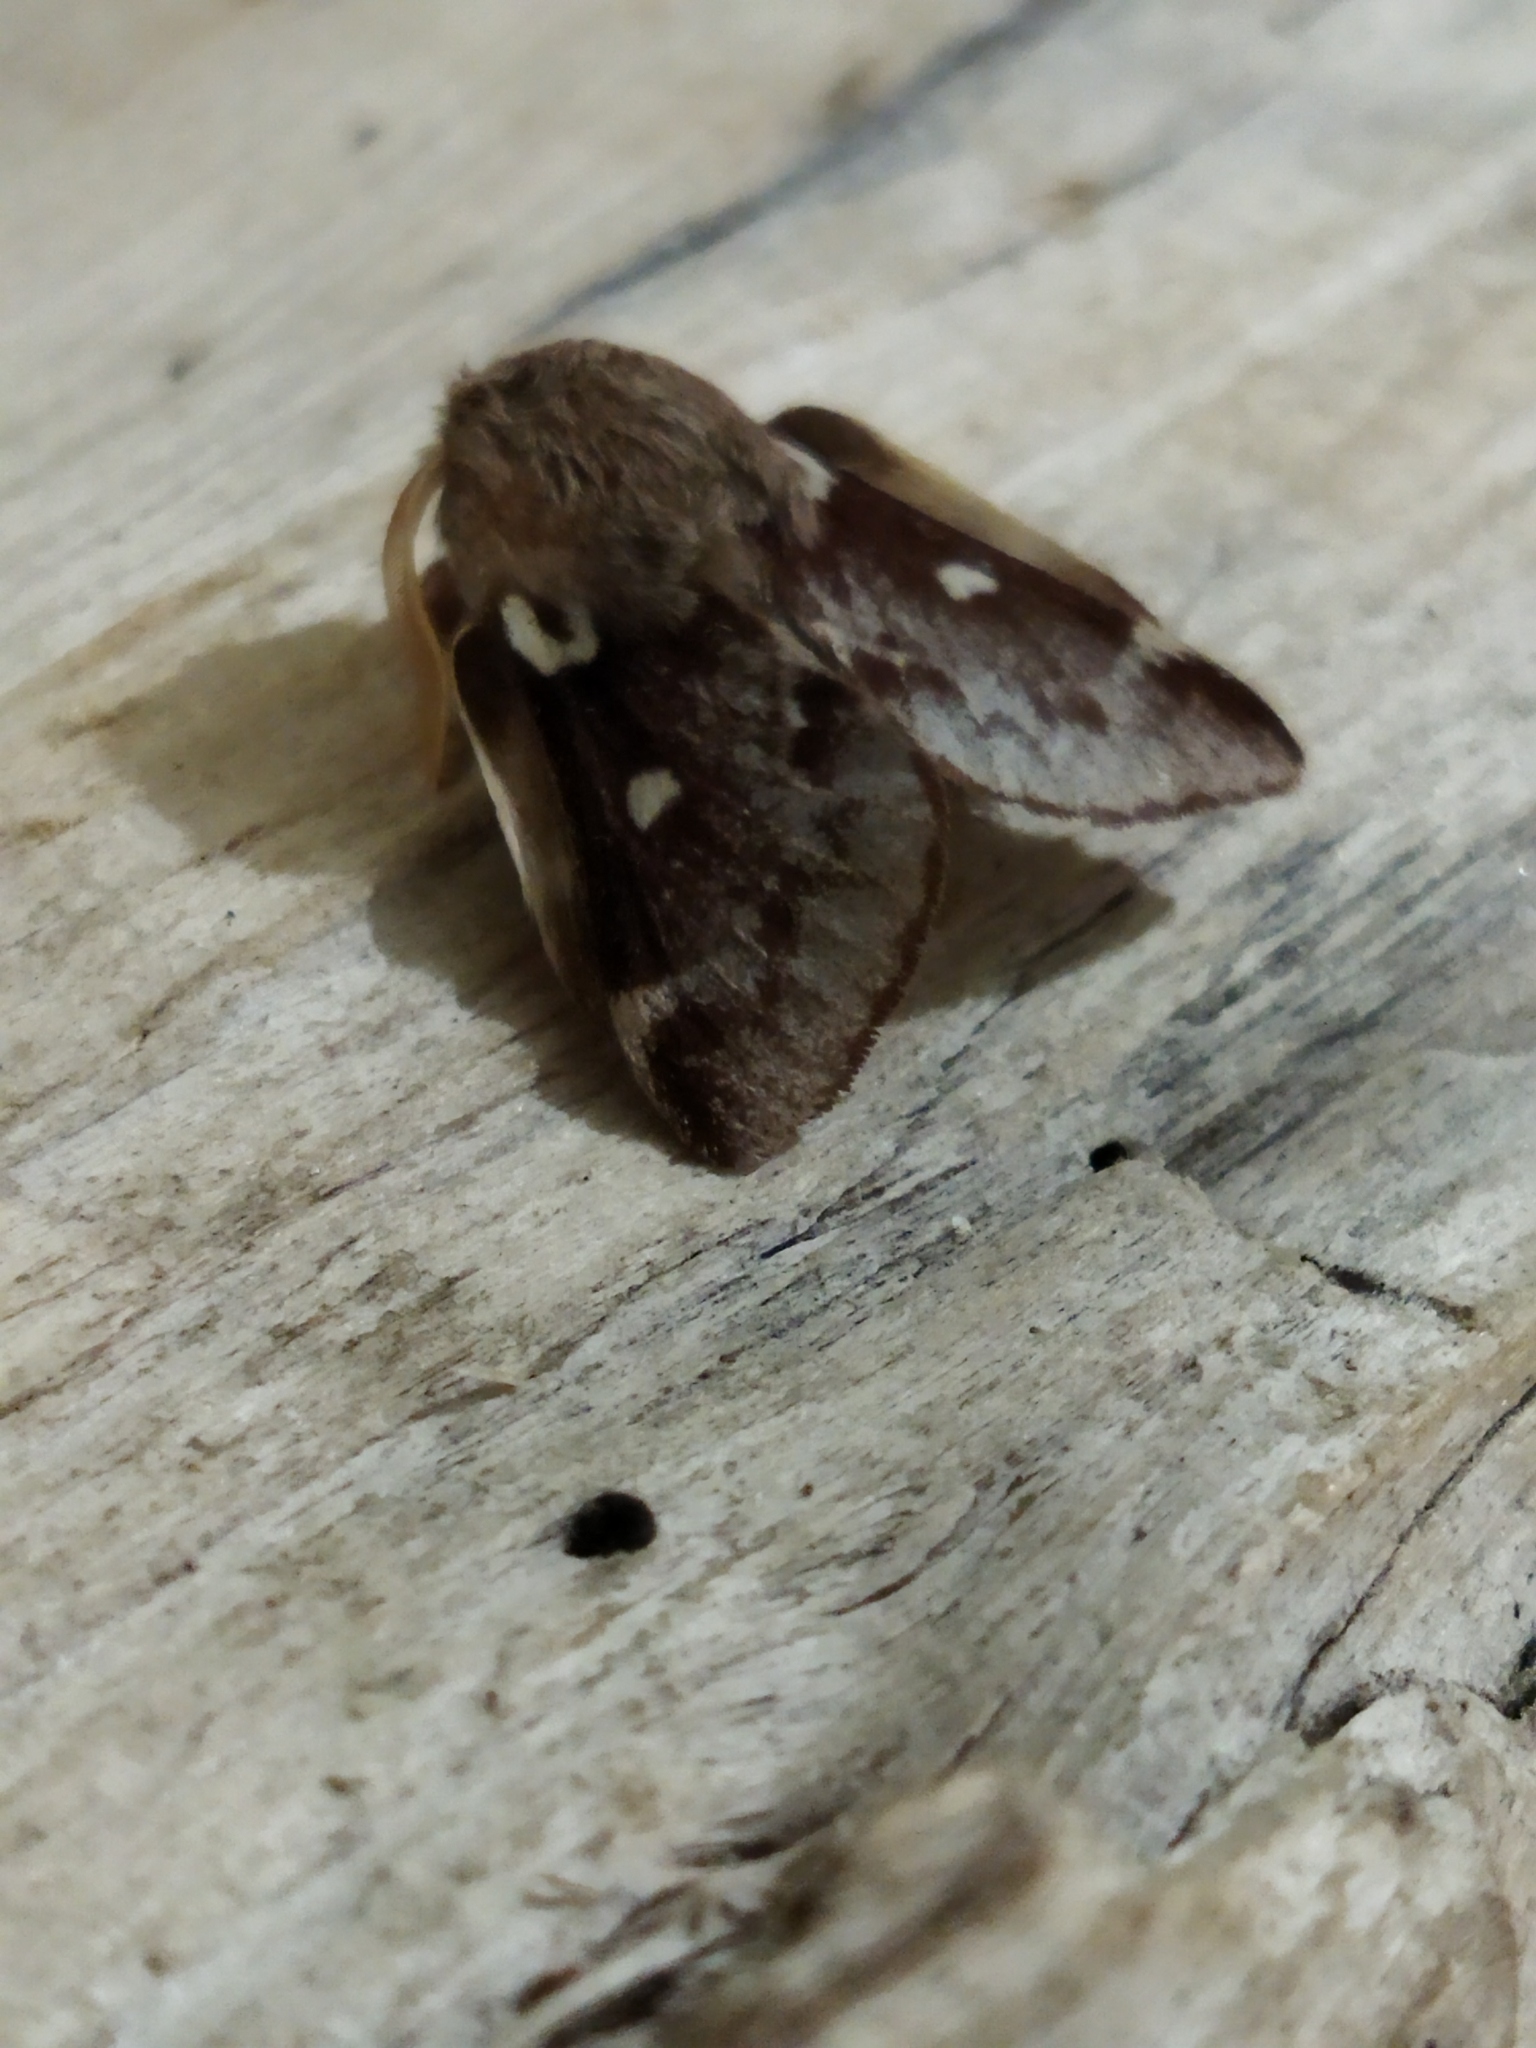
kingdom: Animalia
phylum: Arthropoda
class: Insecta
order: Lepidoptera
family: Lasiocampidae
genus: Eriogaster
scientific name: Eriogaster lanestris
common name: Small eggar
